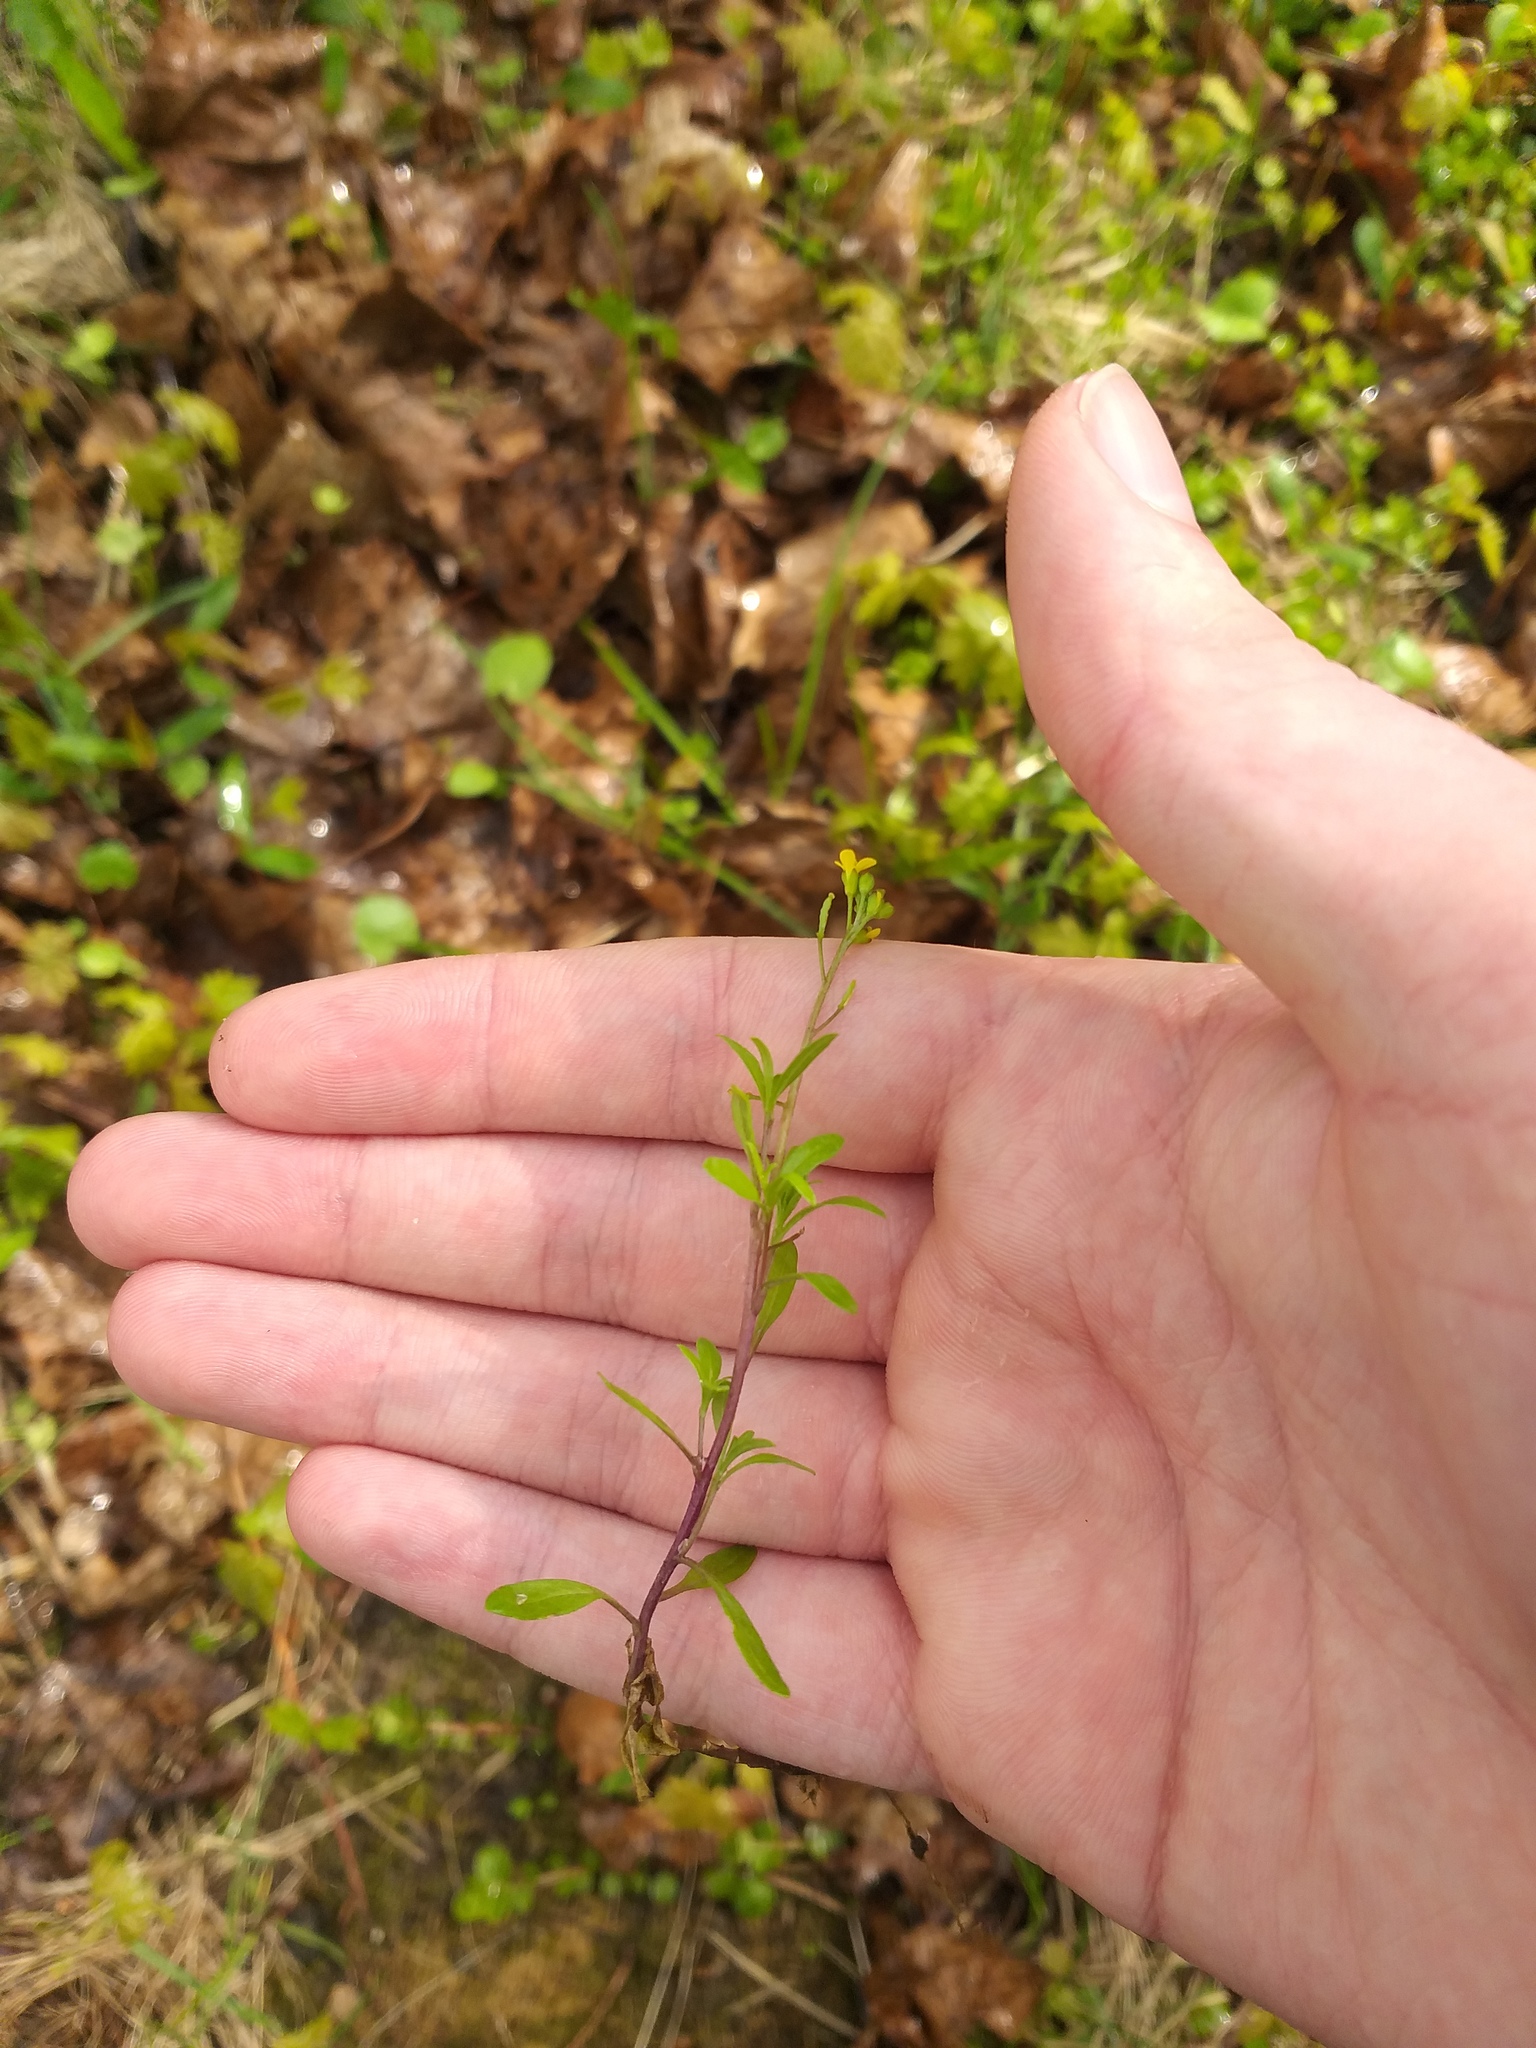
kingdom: Plantae
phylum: Tracheophyta
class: Magnoliopsida
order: Brassicales
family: Brassicaceae
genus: Erysimum
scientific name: Erysimum cheiranthoides
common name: Treacle mustard
